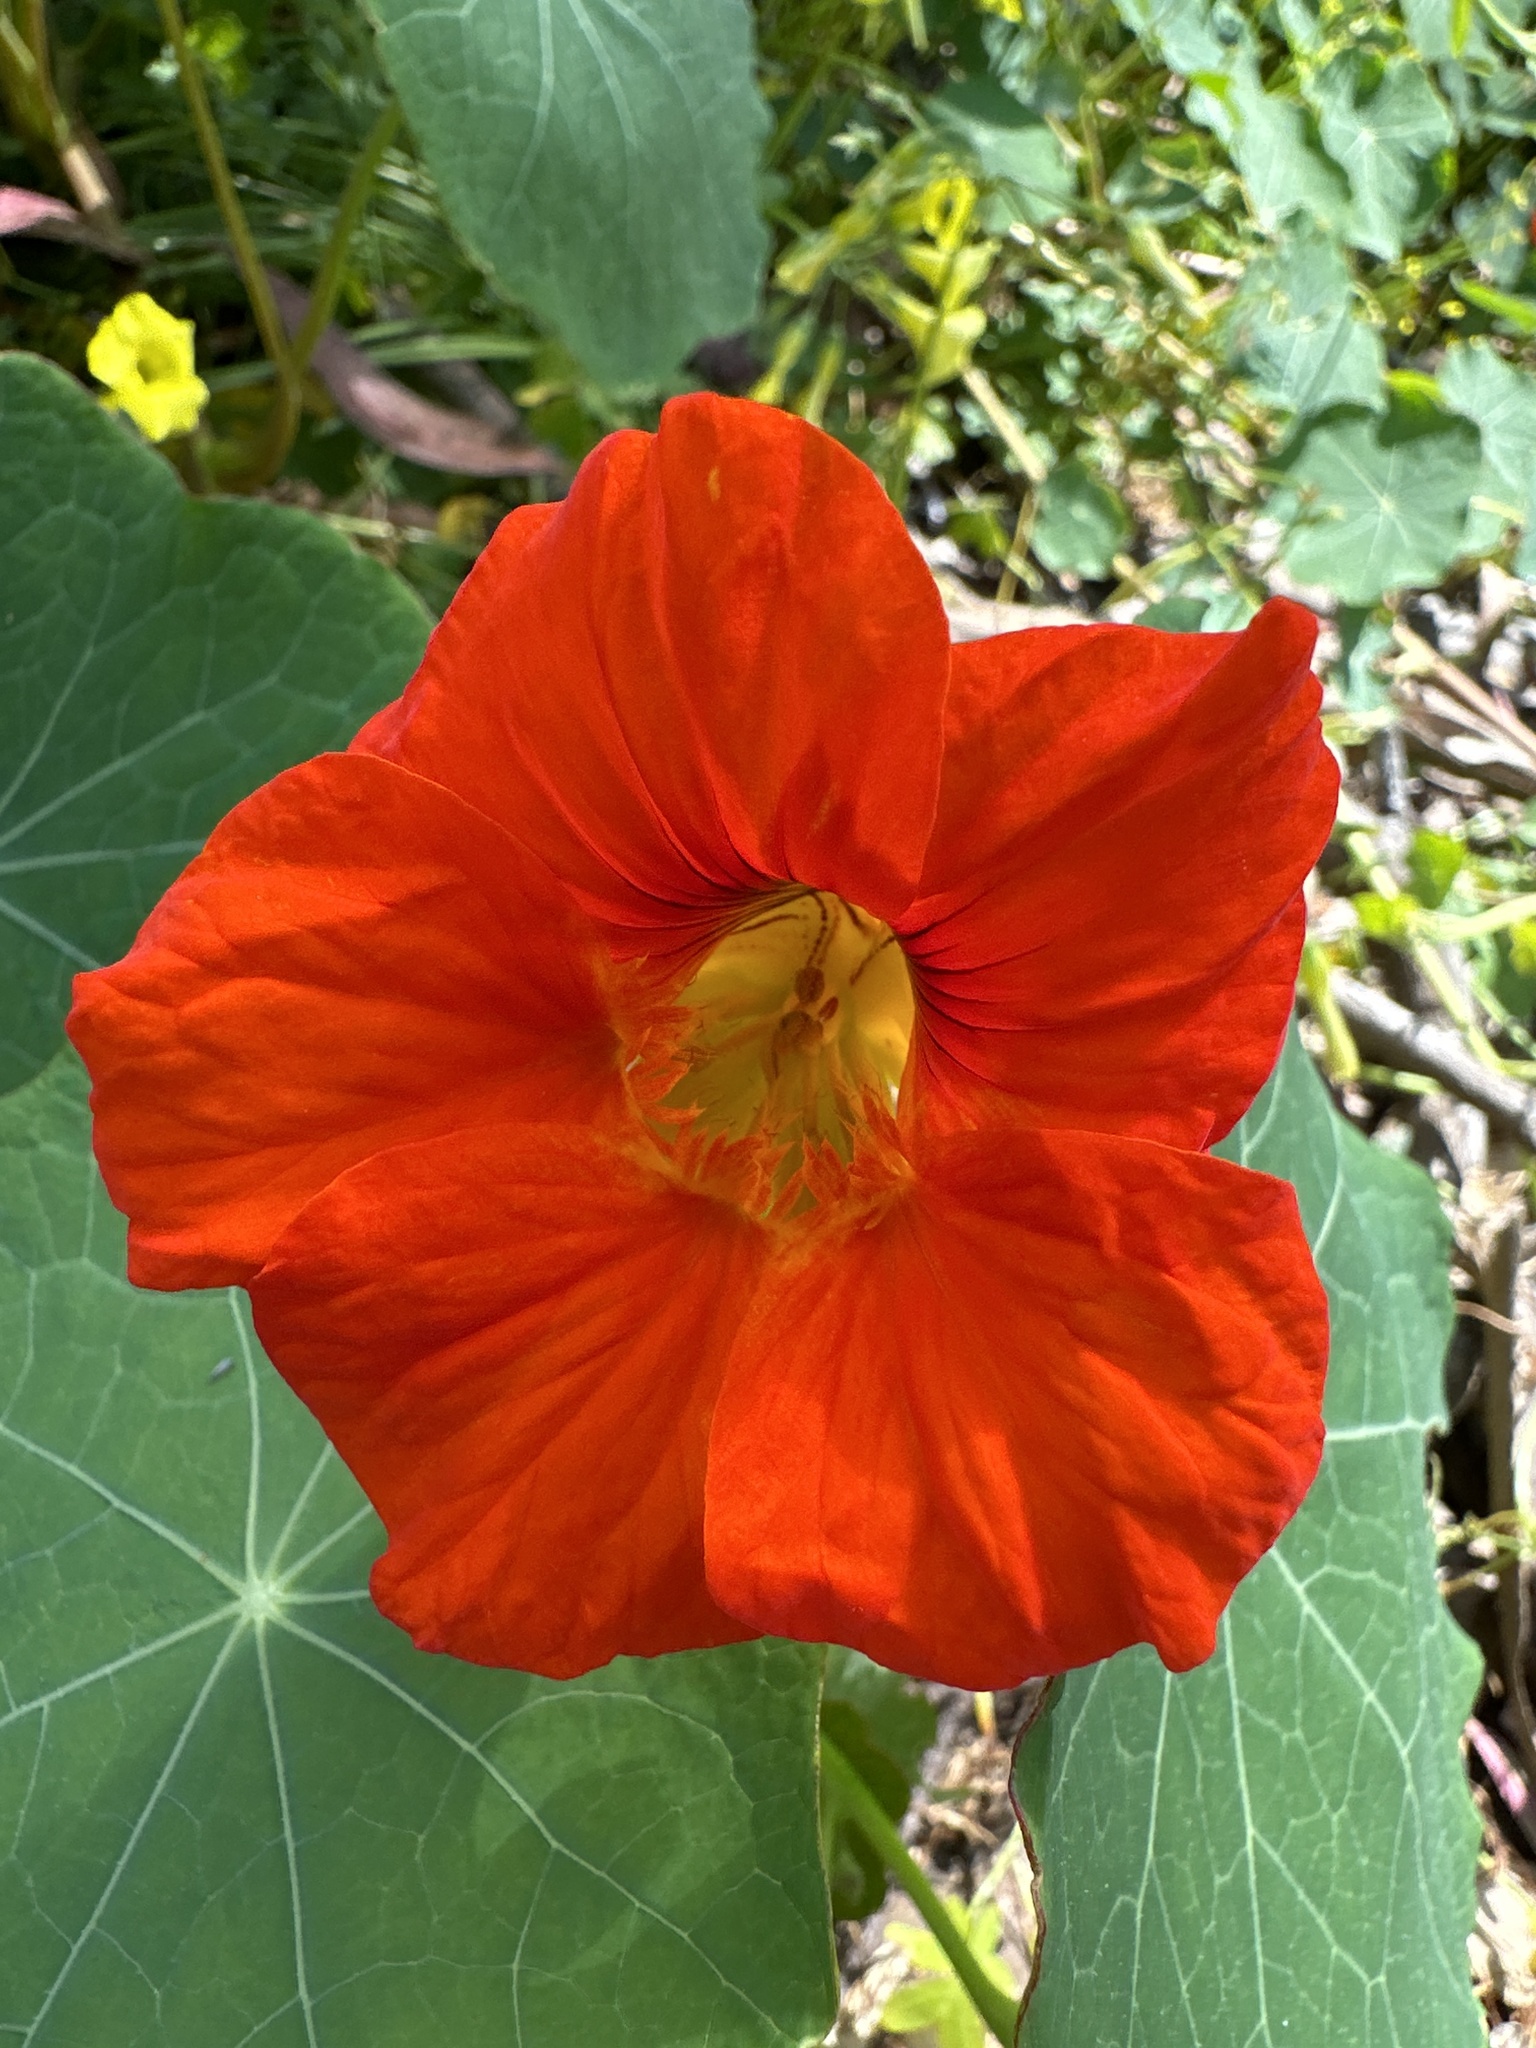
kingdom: Plantae
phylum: Tracheophyta
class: Magnoliopsida
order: Brassicales
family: Tropaeolaceae
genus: Tropaeolum
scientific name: Tropaeolum majus
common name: Nasturtium
